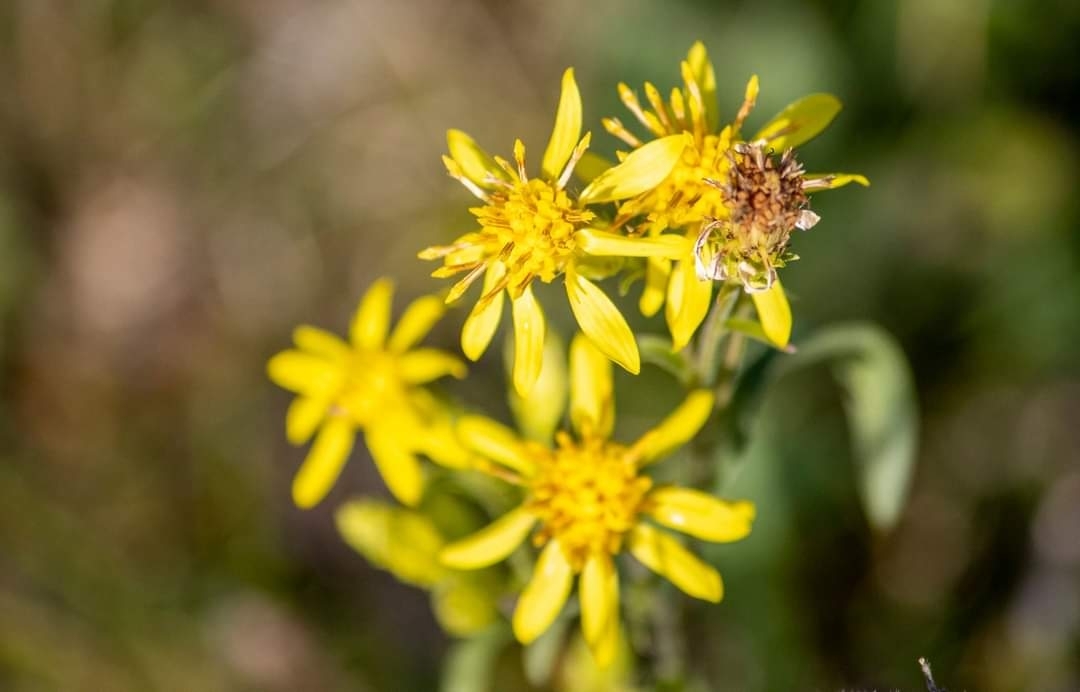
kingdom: Plantae
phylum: Tracheophyta
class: Magnoliopsida
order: Asterales
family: Asteraceae
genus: Solidago
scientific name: Solidago virgaurea
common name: Goldenrod
